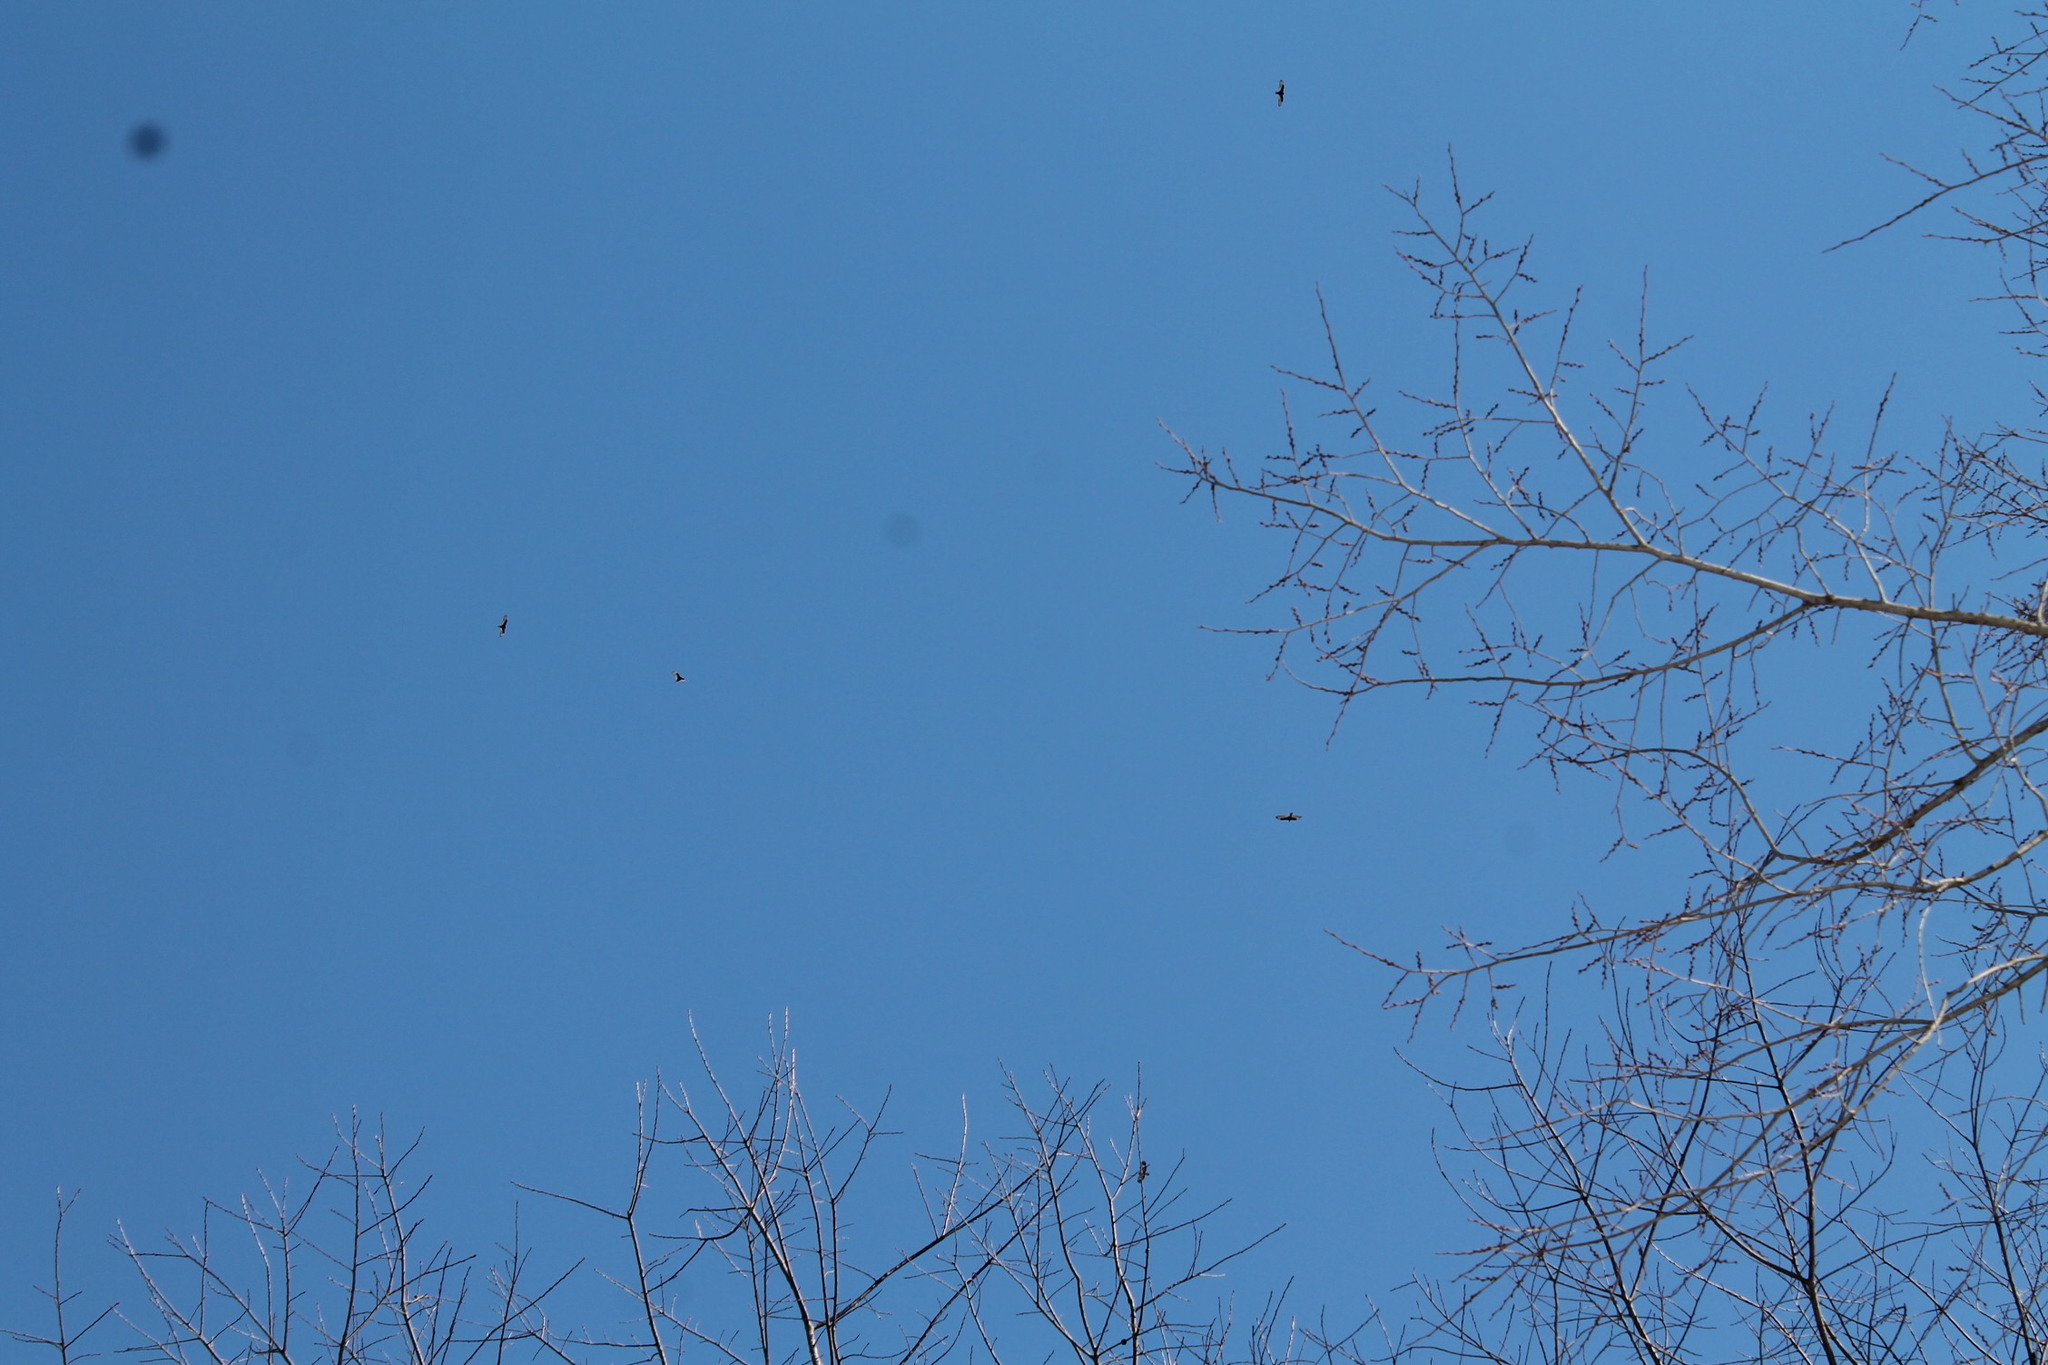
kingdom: Animalia
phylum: Chordata
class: Aves
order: Accipitriformes
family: Cathartidae
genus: Cathartes
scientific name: Cathartes aura
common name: Turkey vulture
